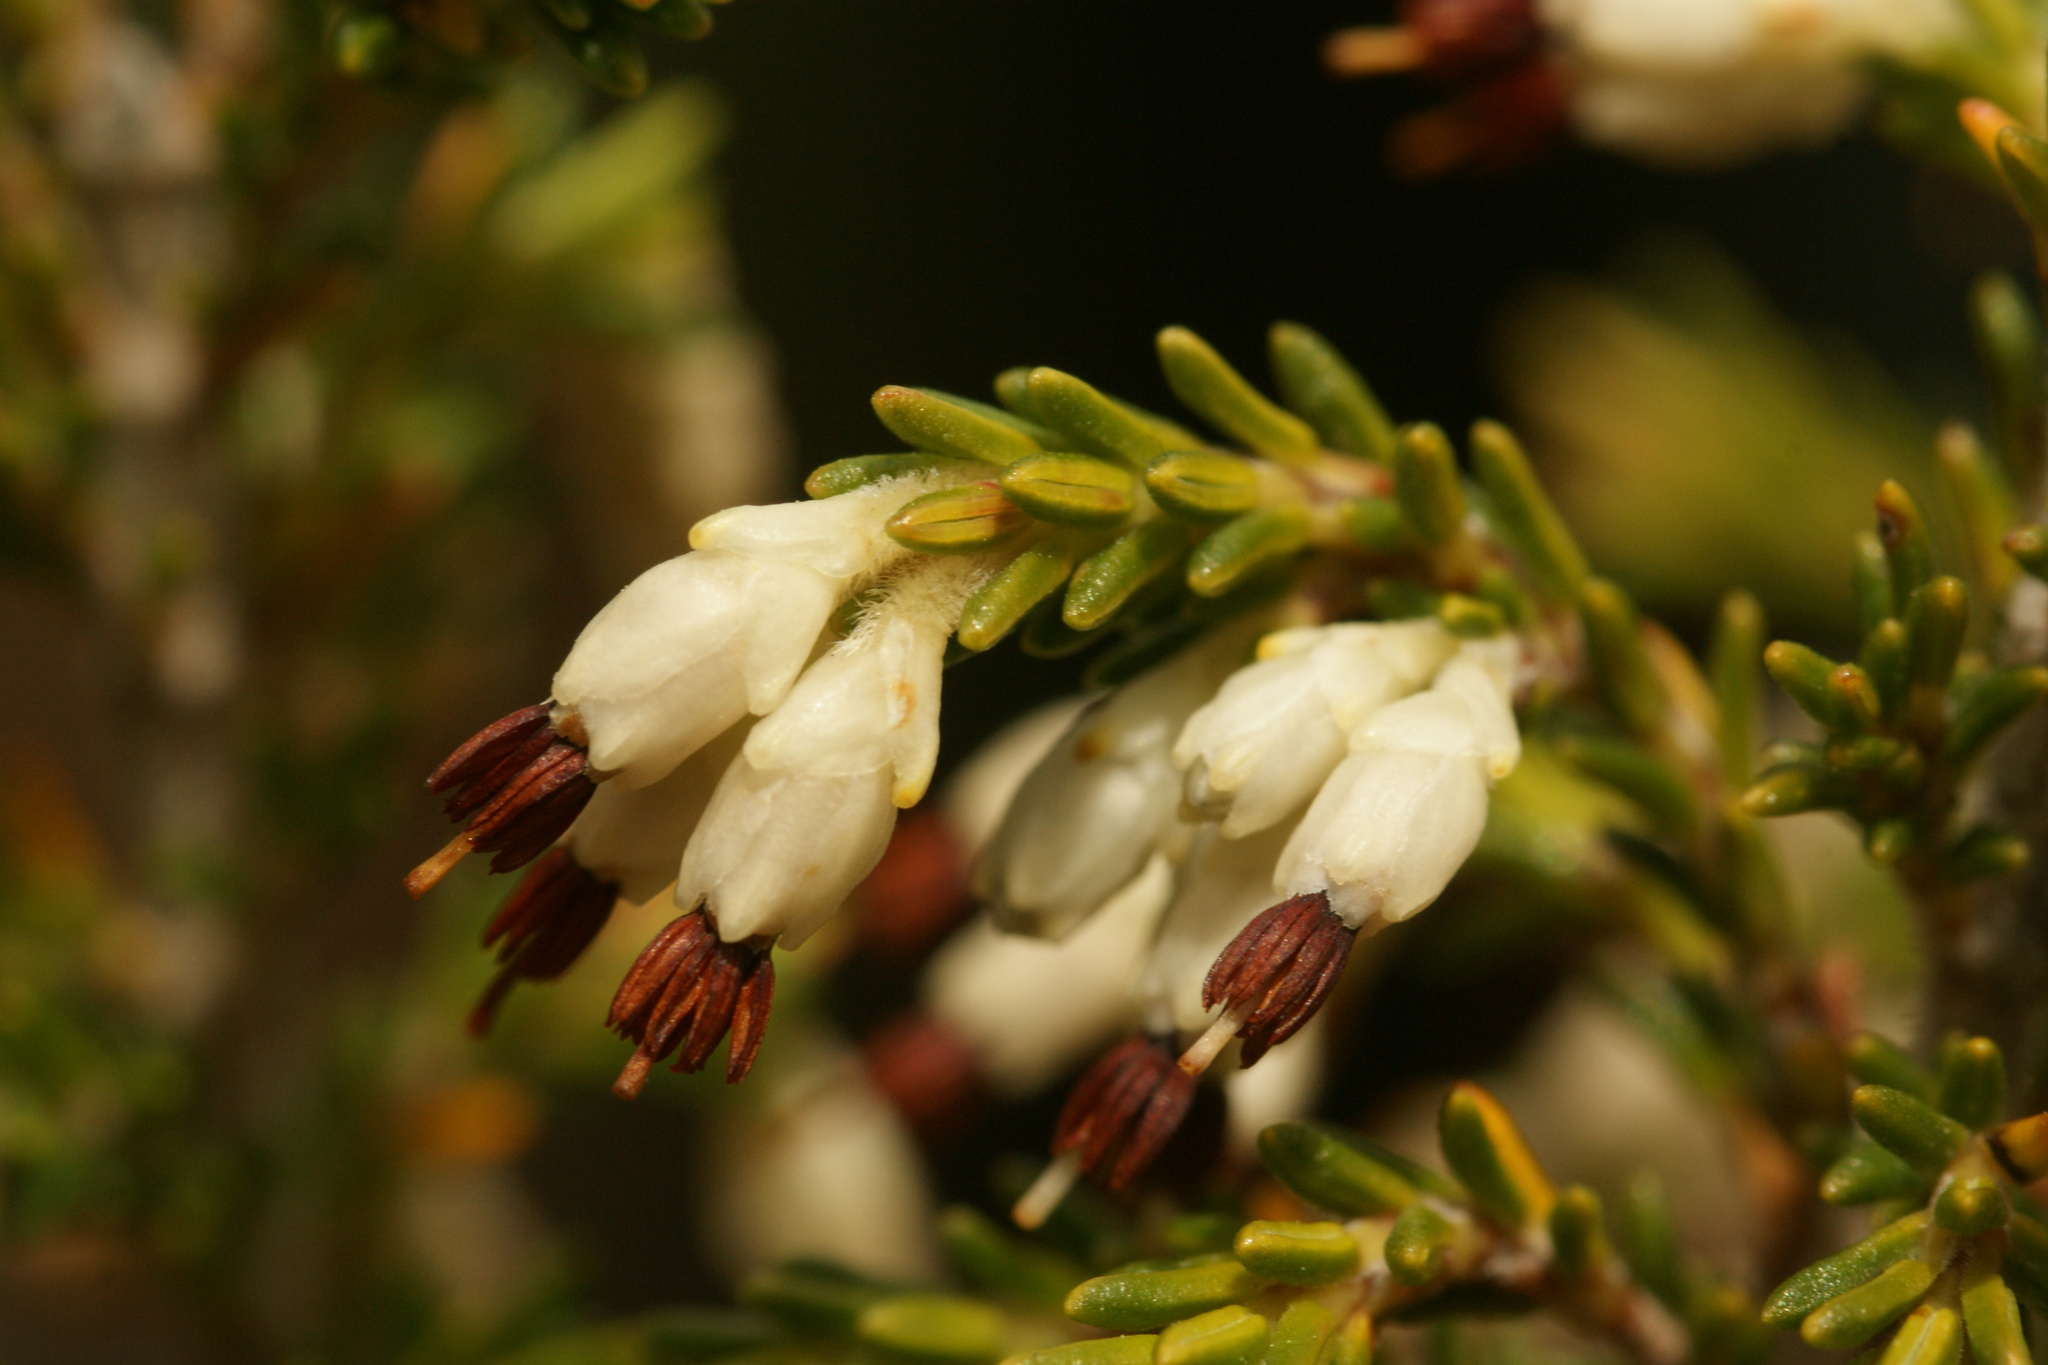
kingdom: Plantae
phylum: Tracheophyta
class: Magnoliopsida
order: Ericales
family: Ericaceae
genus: Erica
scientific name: Erica imbricata
